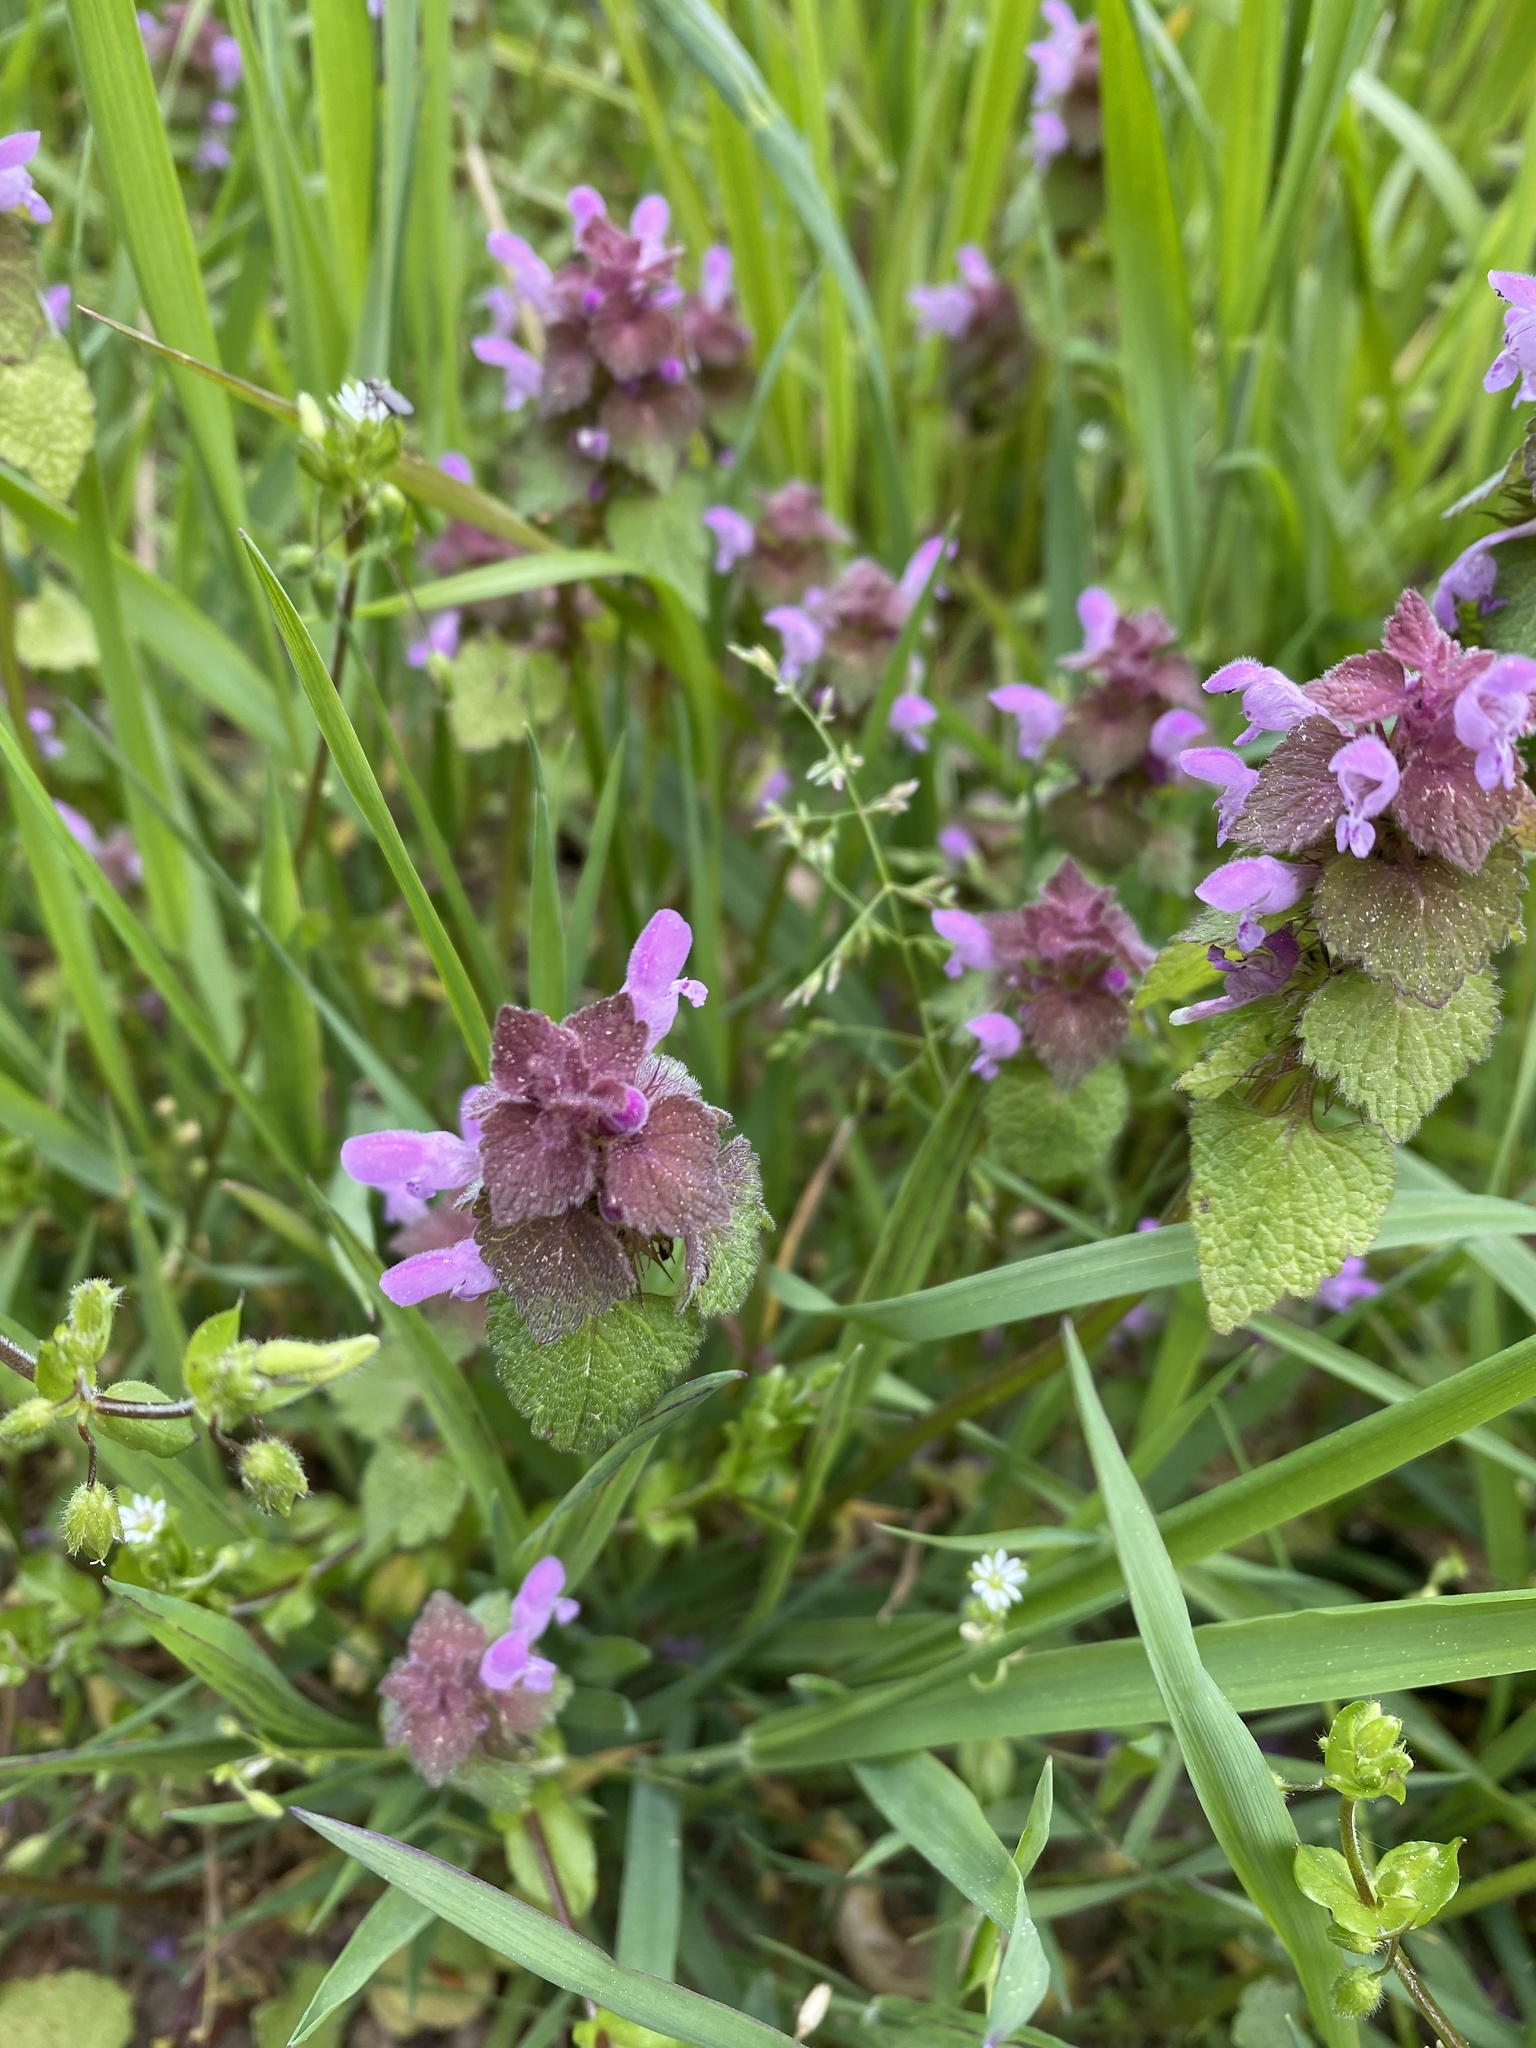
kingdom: Plantae
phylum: Tracheophyta
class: Magnoliopsida
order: Lamiales
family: Lamiaceae
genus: Lamium
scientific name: Lamium purpureum
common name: Red dead-nettle
